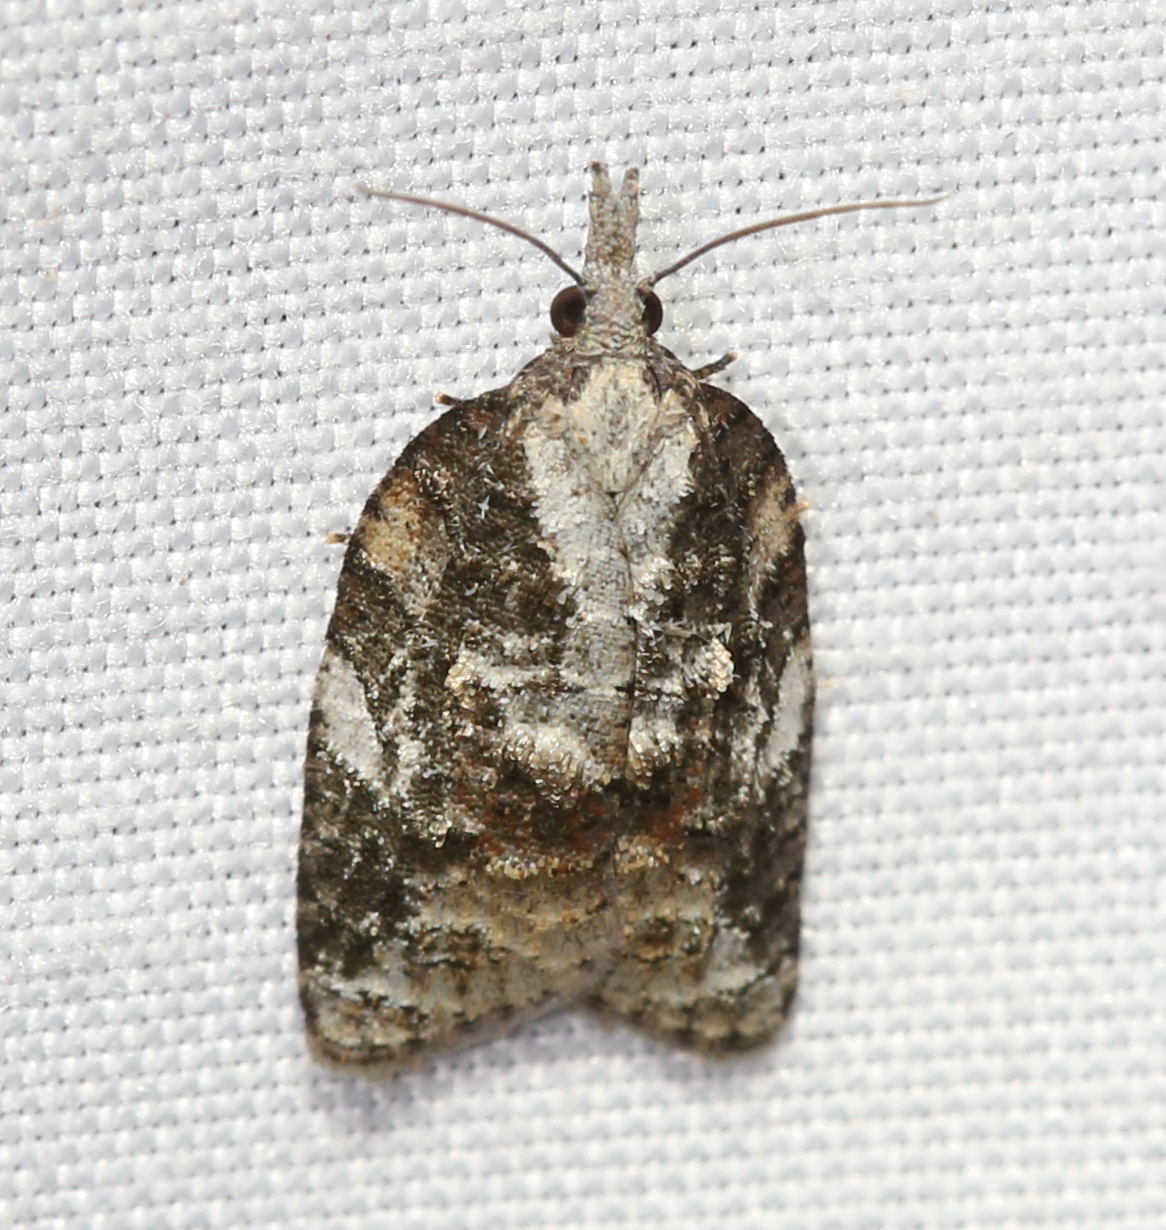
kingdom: Animalia
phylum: Arthropoda
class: Insecta
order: Lepidoptera
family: Tortricidae
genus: Platynota
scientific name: Platynota exasperatana
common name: Exasperating platynota moth
